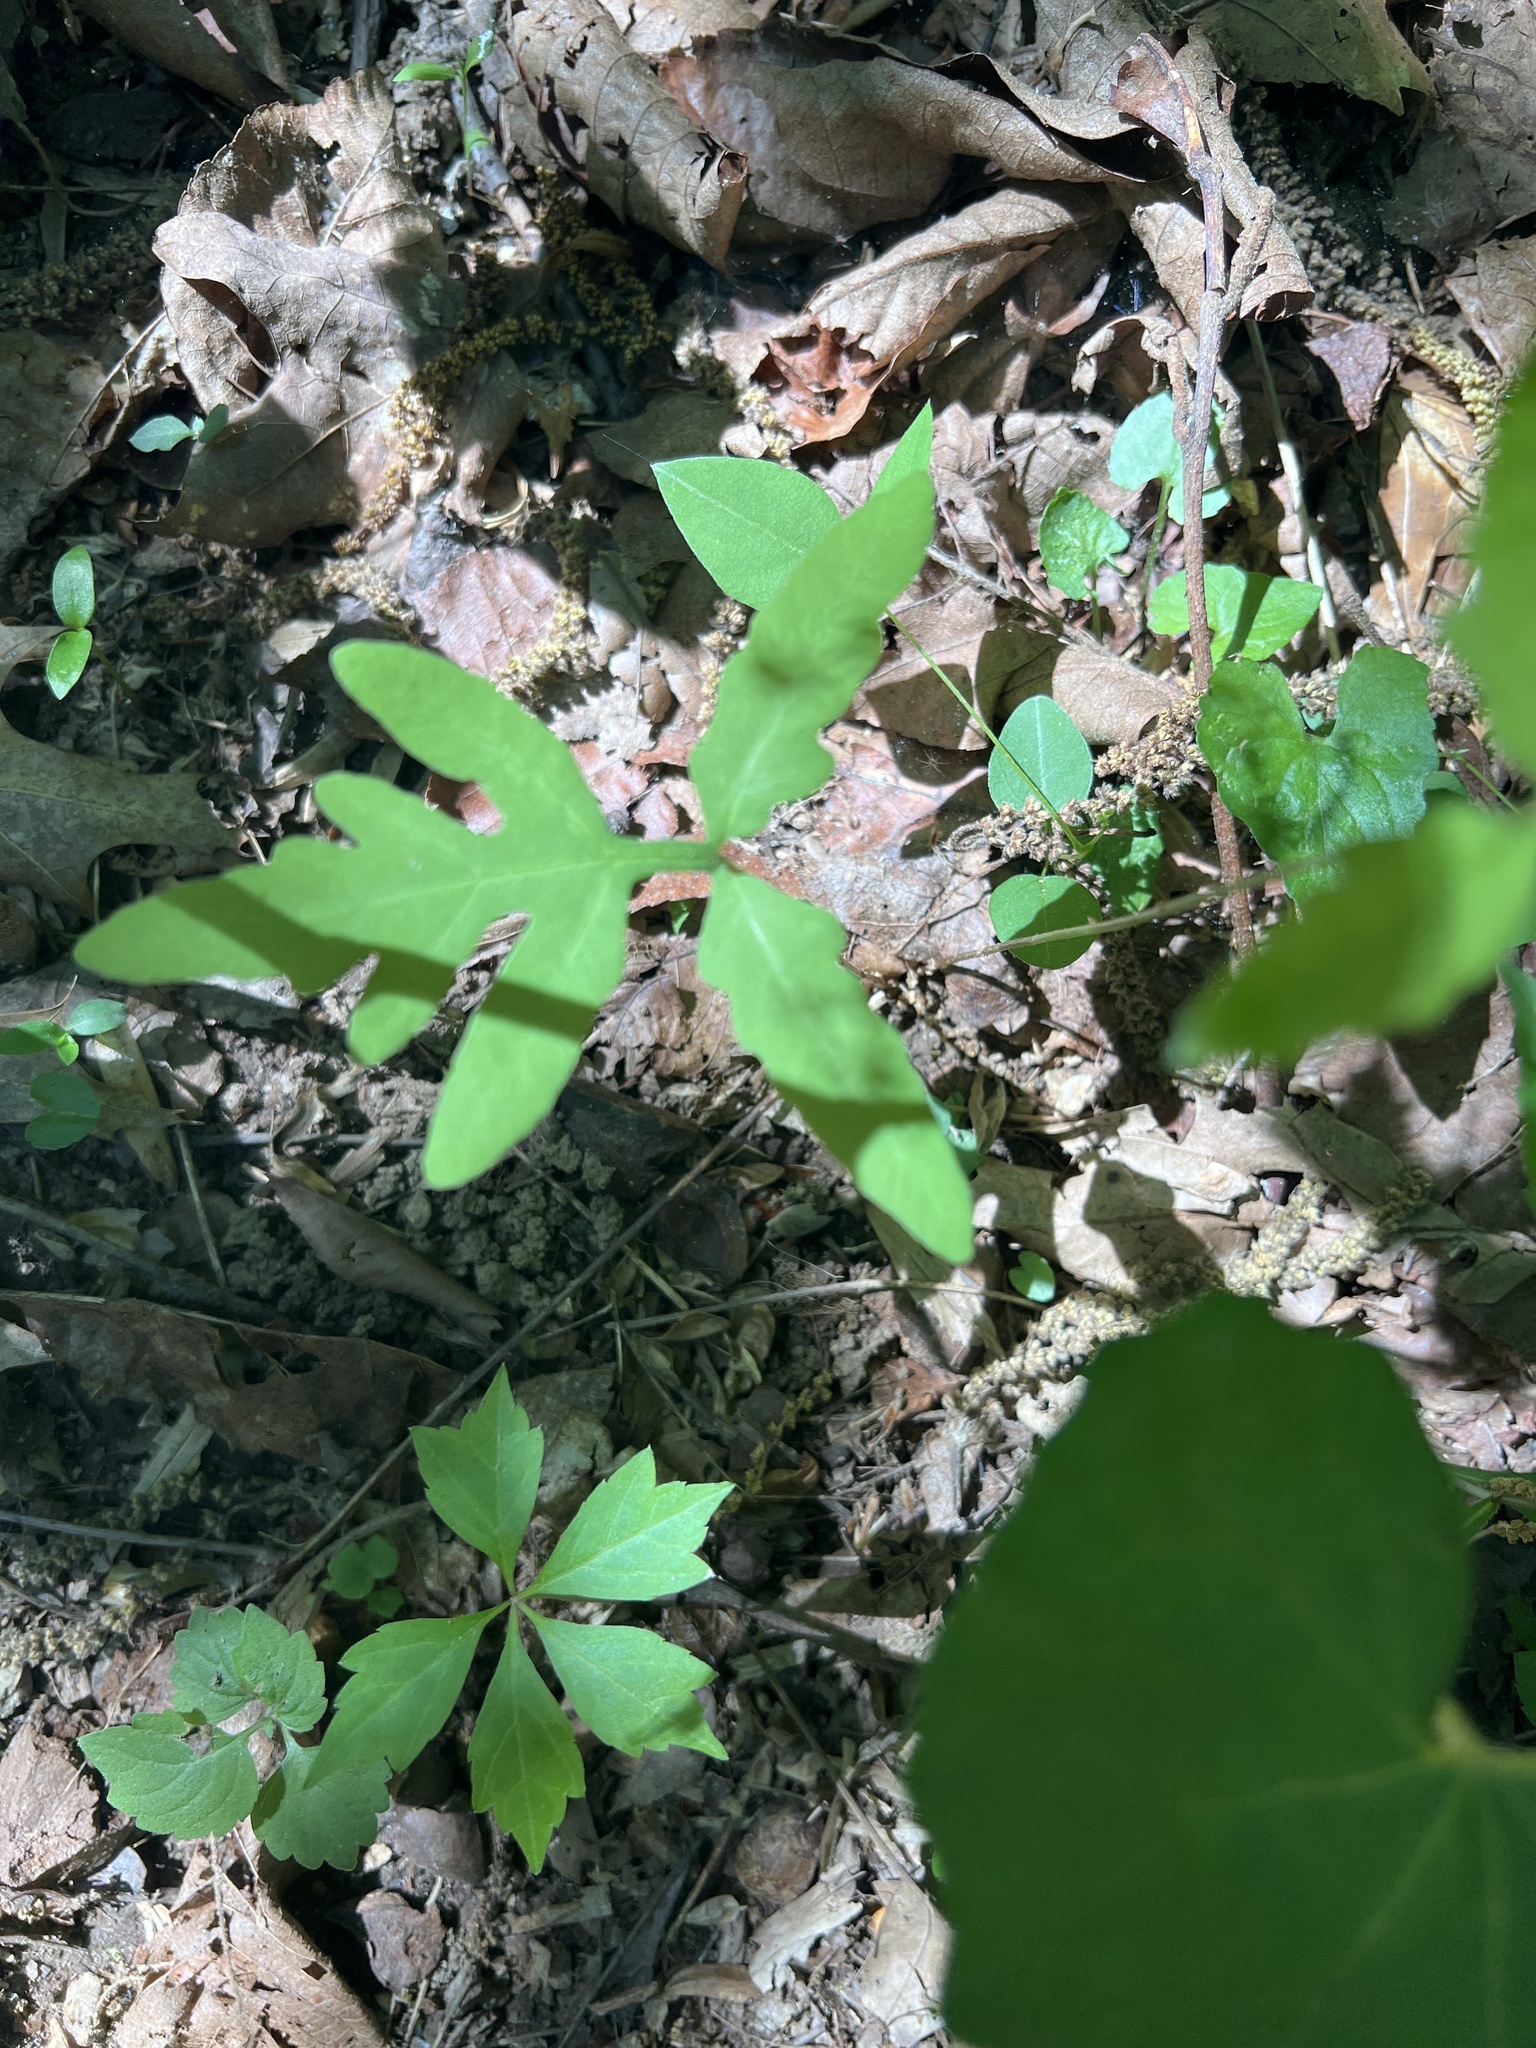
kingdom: Plantae
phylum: Tracheophyta
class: Polypodiopsida
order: Polypodiales
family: Onocleaceae
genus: Onoclea
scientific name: Onoclea sensibilis
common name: Sensitive fern
